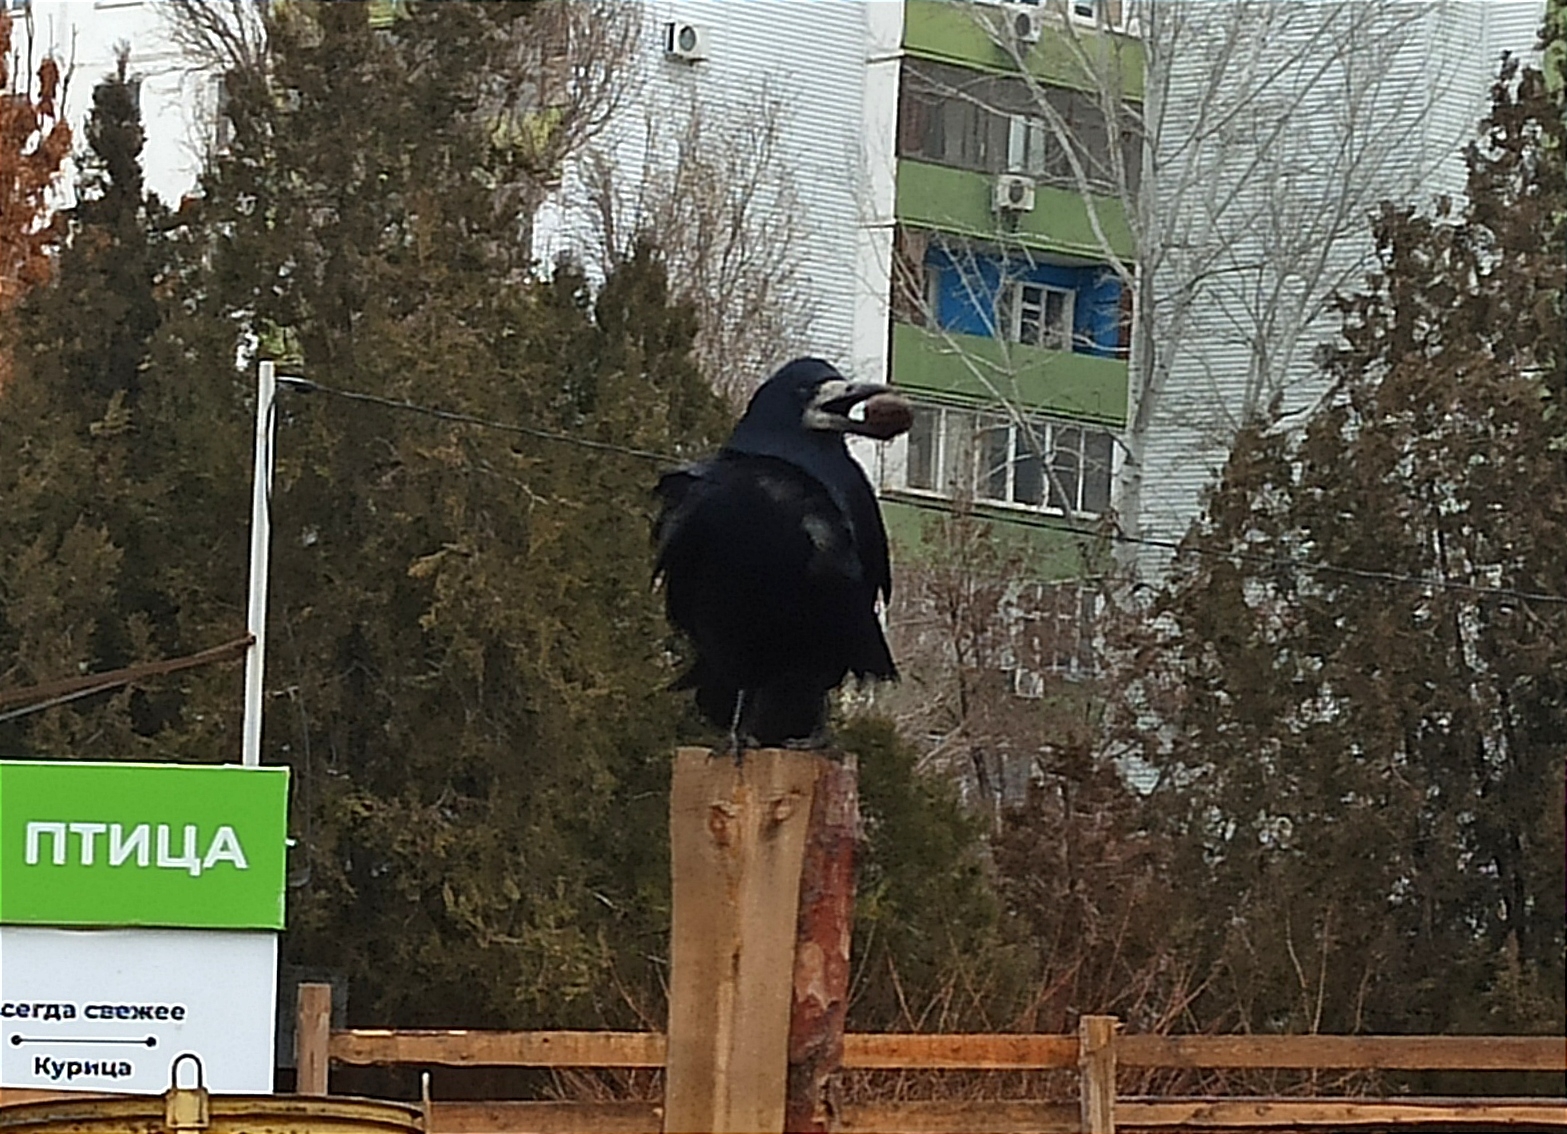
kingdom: Animalia
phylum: Chordata
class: Aves
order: Passeriformes
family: Corvidae
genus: Corvus
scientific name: Corvus frugilegus
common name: Rook
